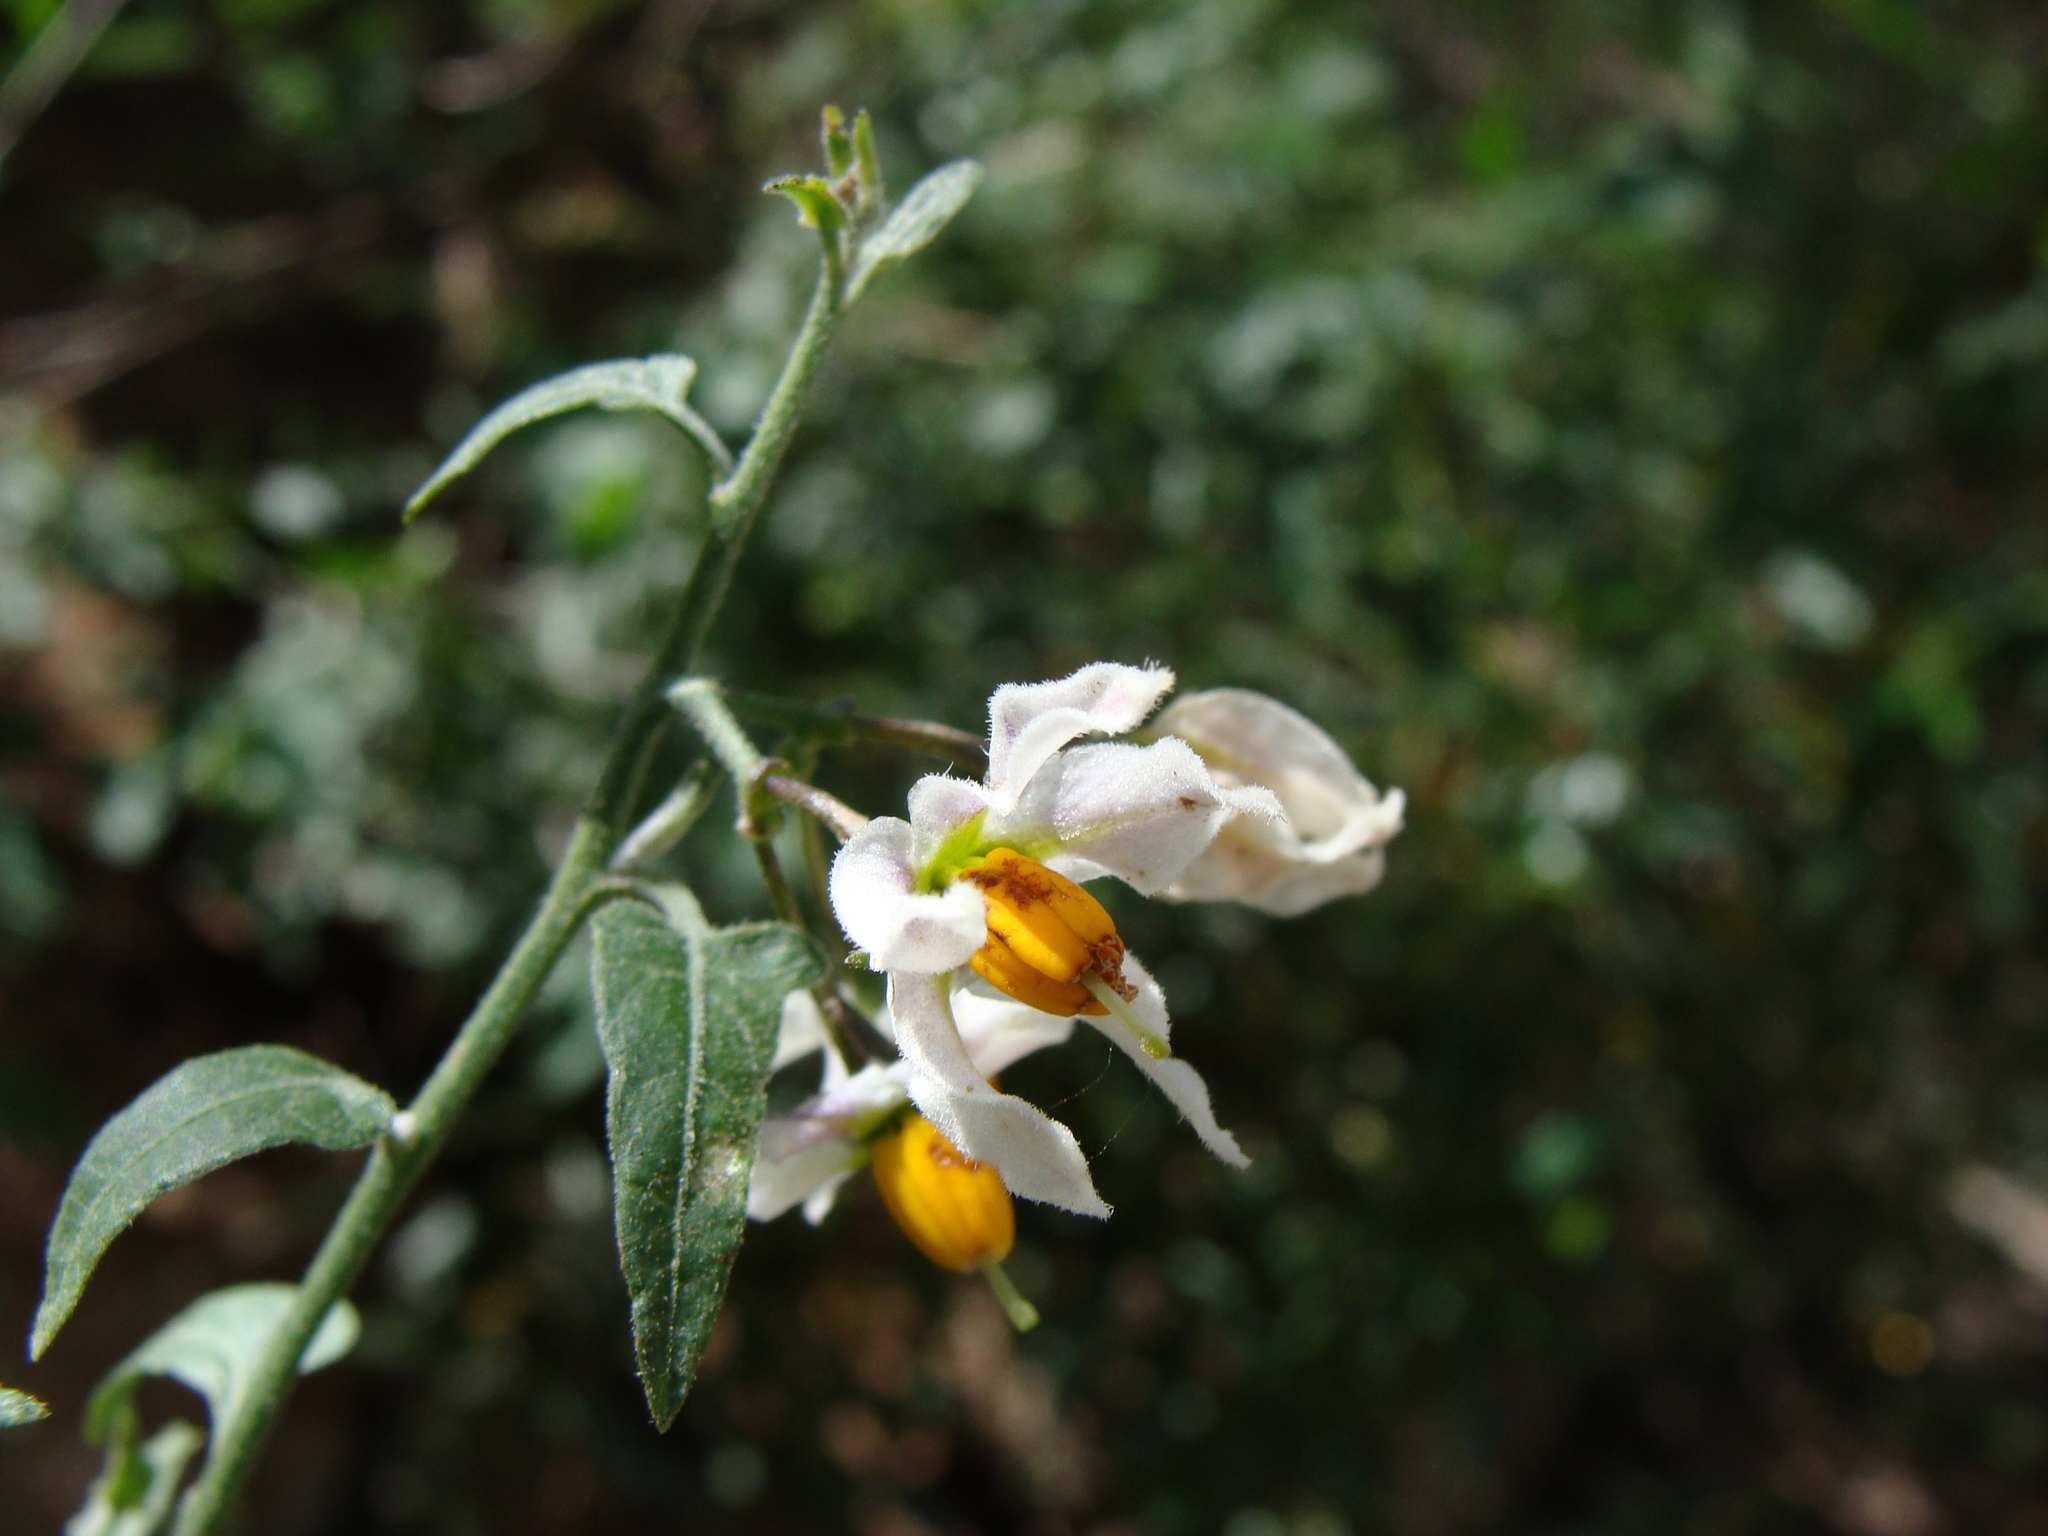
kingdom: Plantae
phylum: Tracheophyta
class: Magnoliopsida
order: Solanales
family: Solanaceae
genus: Solanum
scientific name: Solanum triquetrum
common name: Texas nightshade
